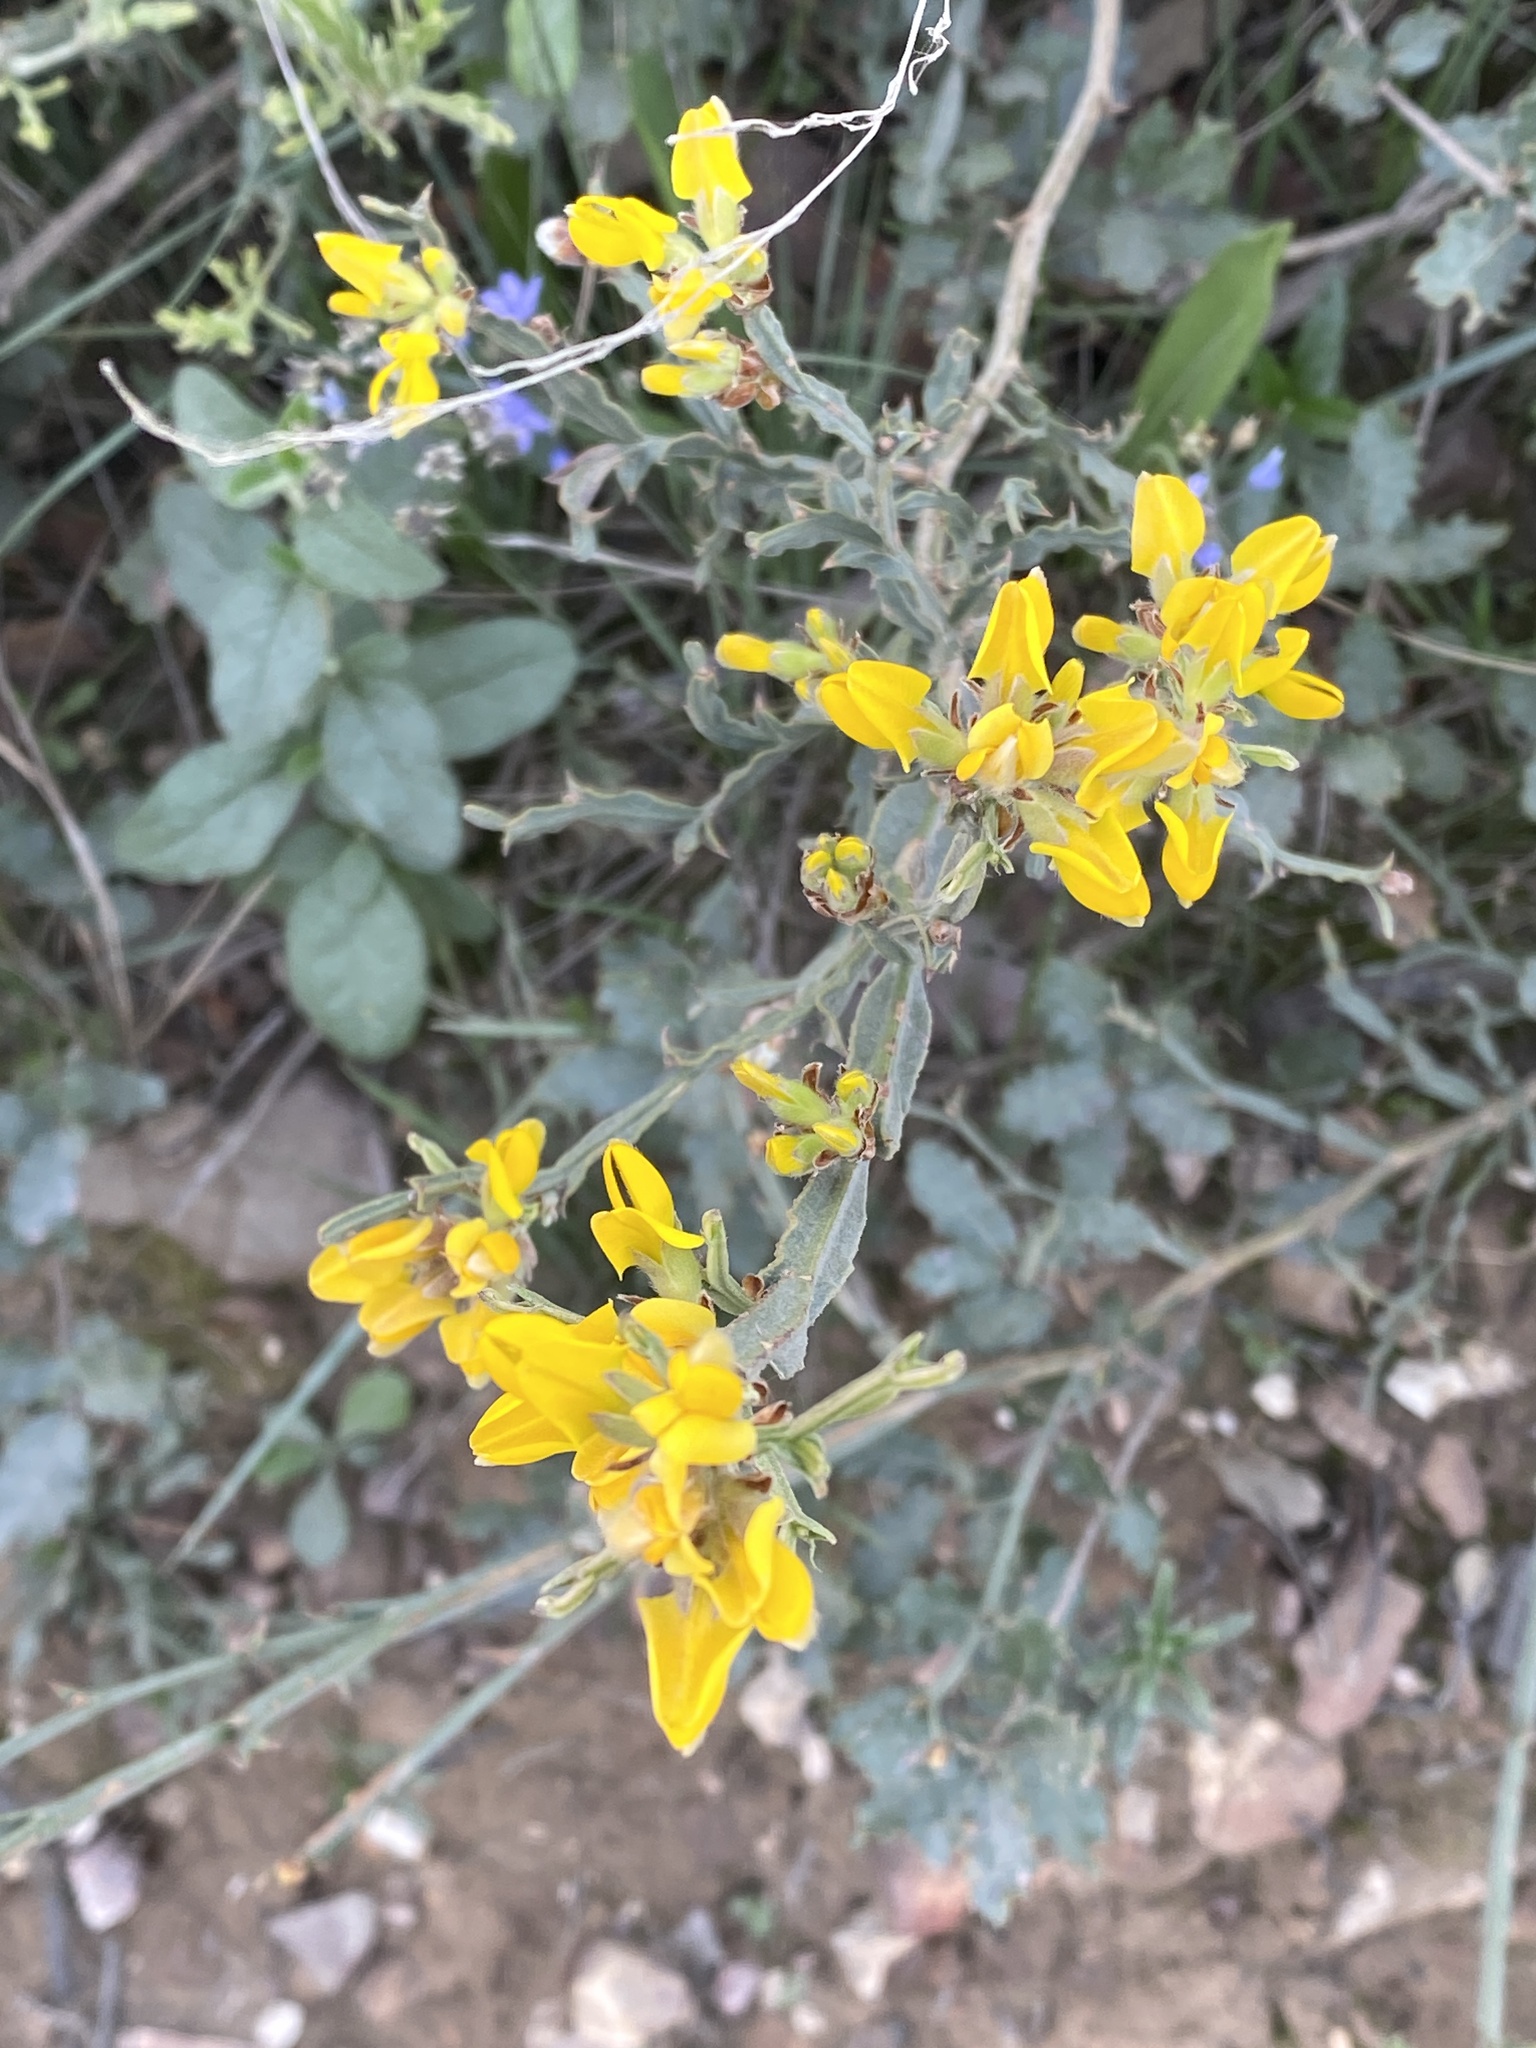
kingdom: Plantae
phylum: Tracheophyta
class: Magnoliopsida
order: Fabales
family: Fabaceae
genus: Genista
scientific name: Genista tridentata
